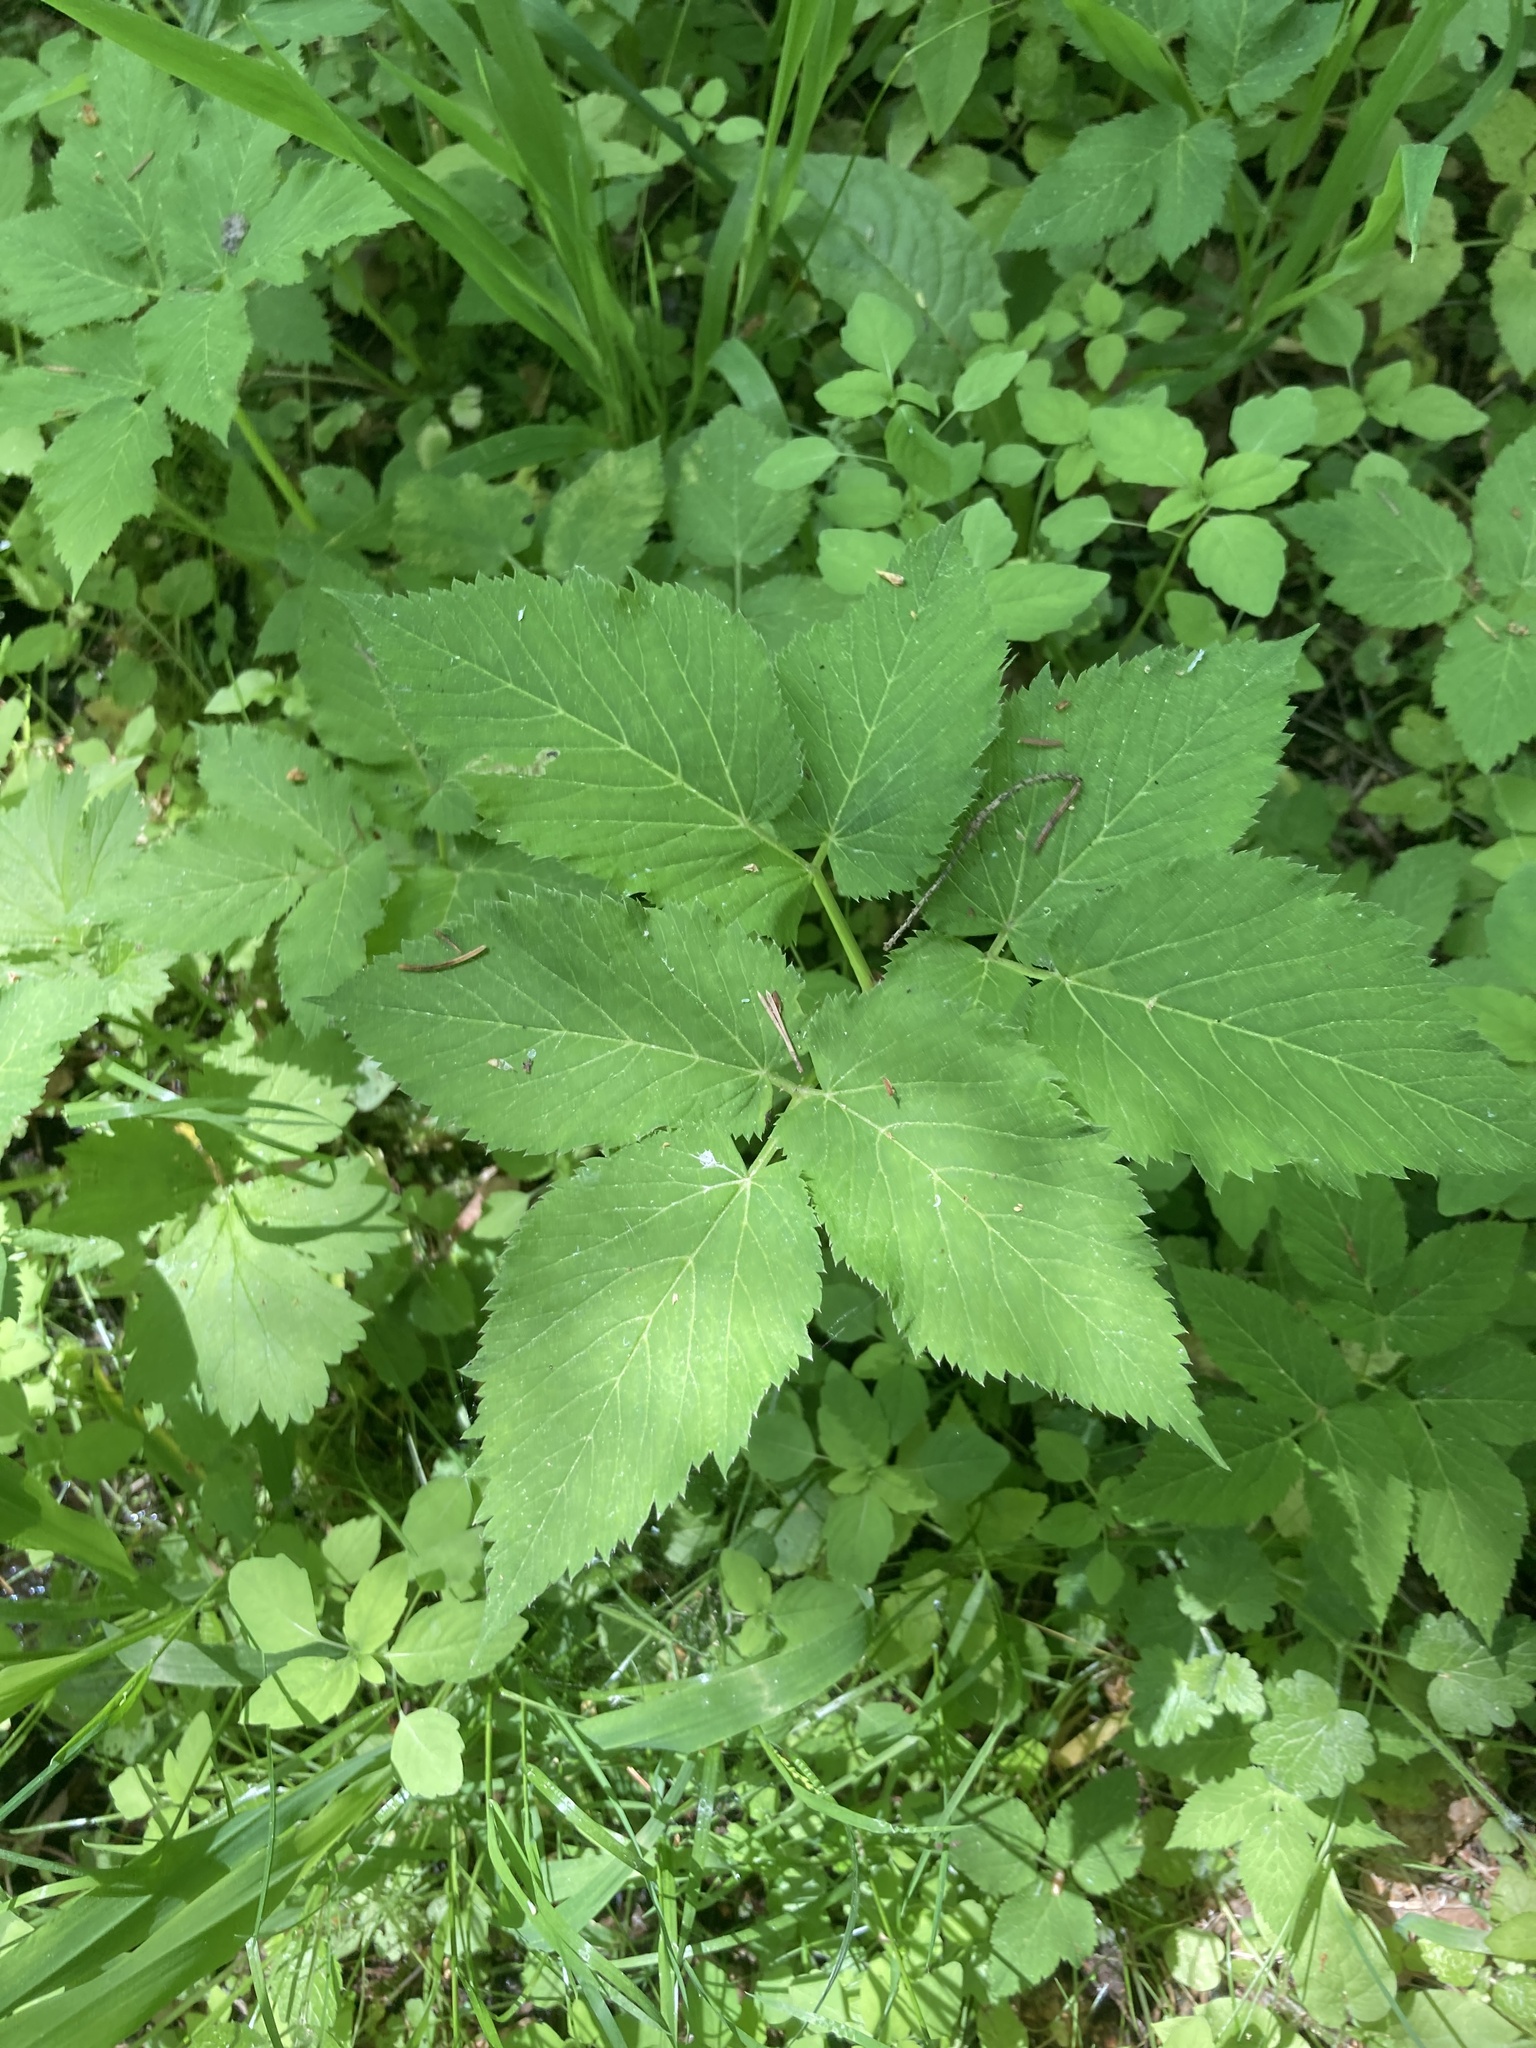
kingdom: Plantae
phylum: Tracheophyta
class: Magnoliopsida
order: Apiales
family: Apiaceae
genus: Aegopodium
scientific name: Aegopodium podagraria
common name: Ground-elder
